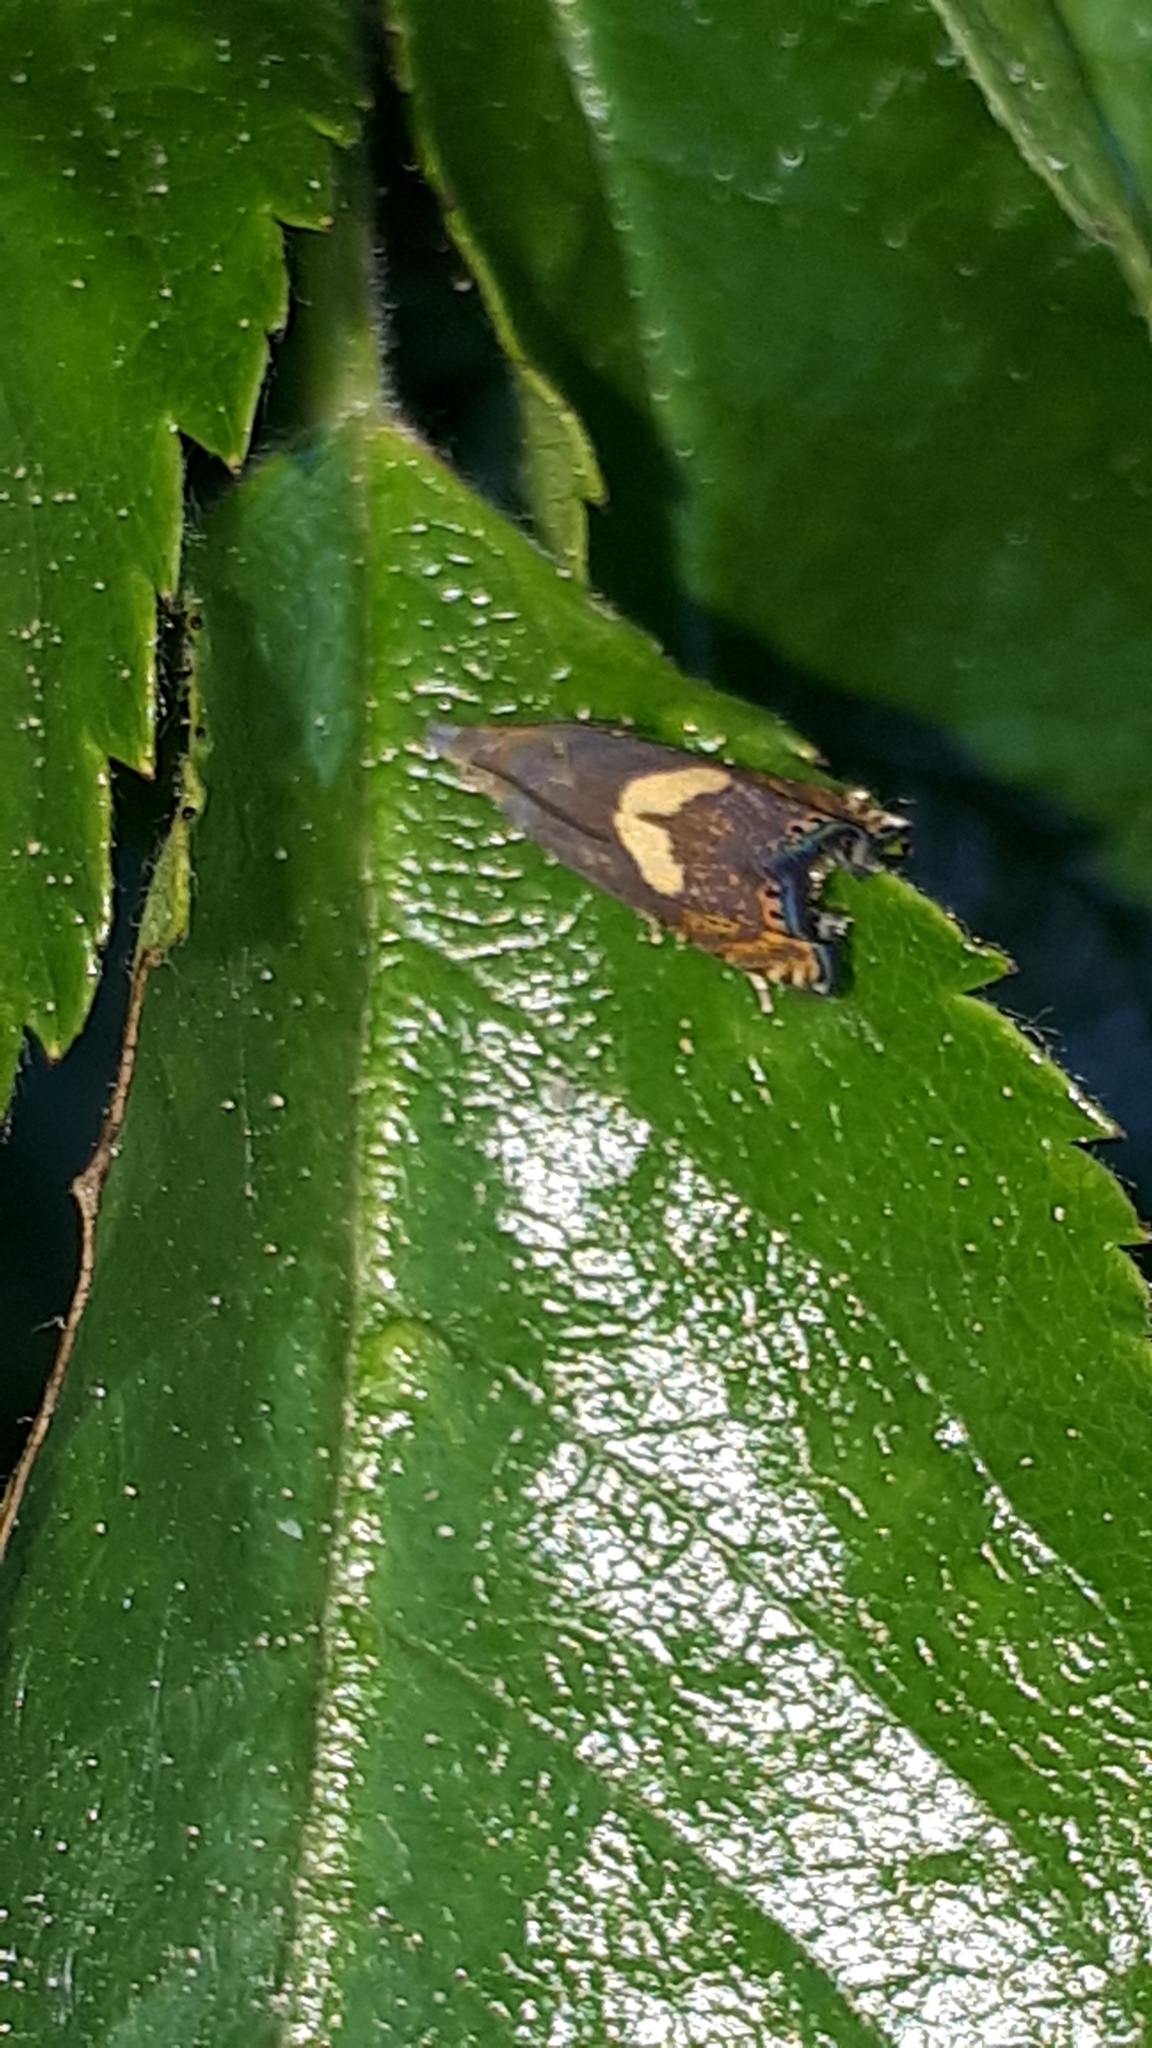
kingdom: Animalia
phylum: Arthropoda
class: Insecta
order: Lepidoptera
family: Tortricidae
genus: Dichrorampha
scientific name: Dichrorampha petiverella
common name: Common drill
